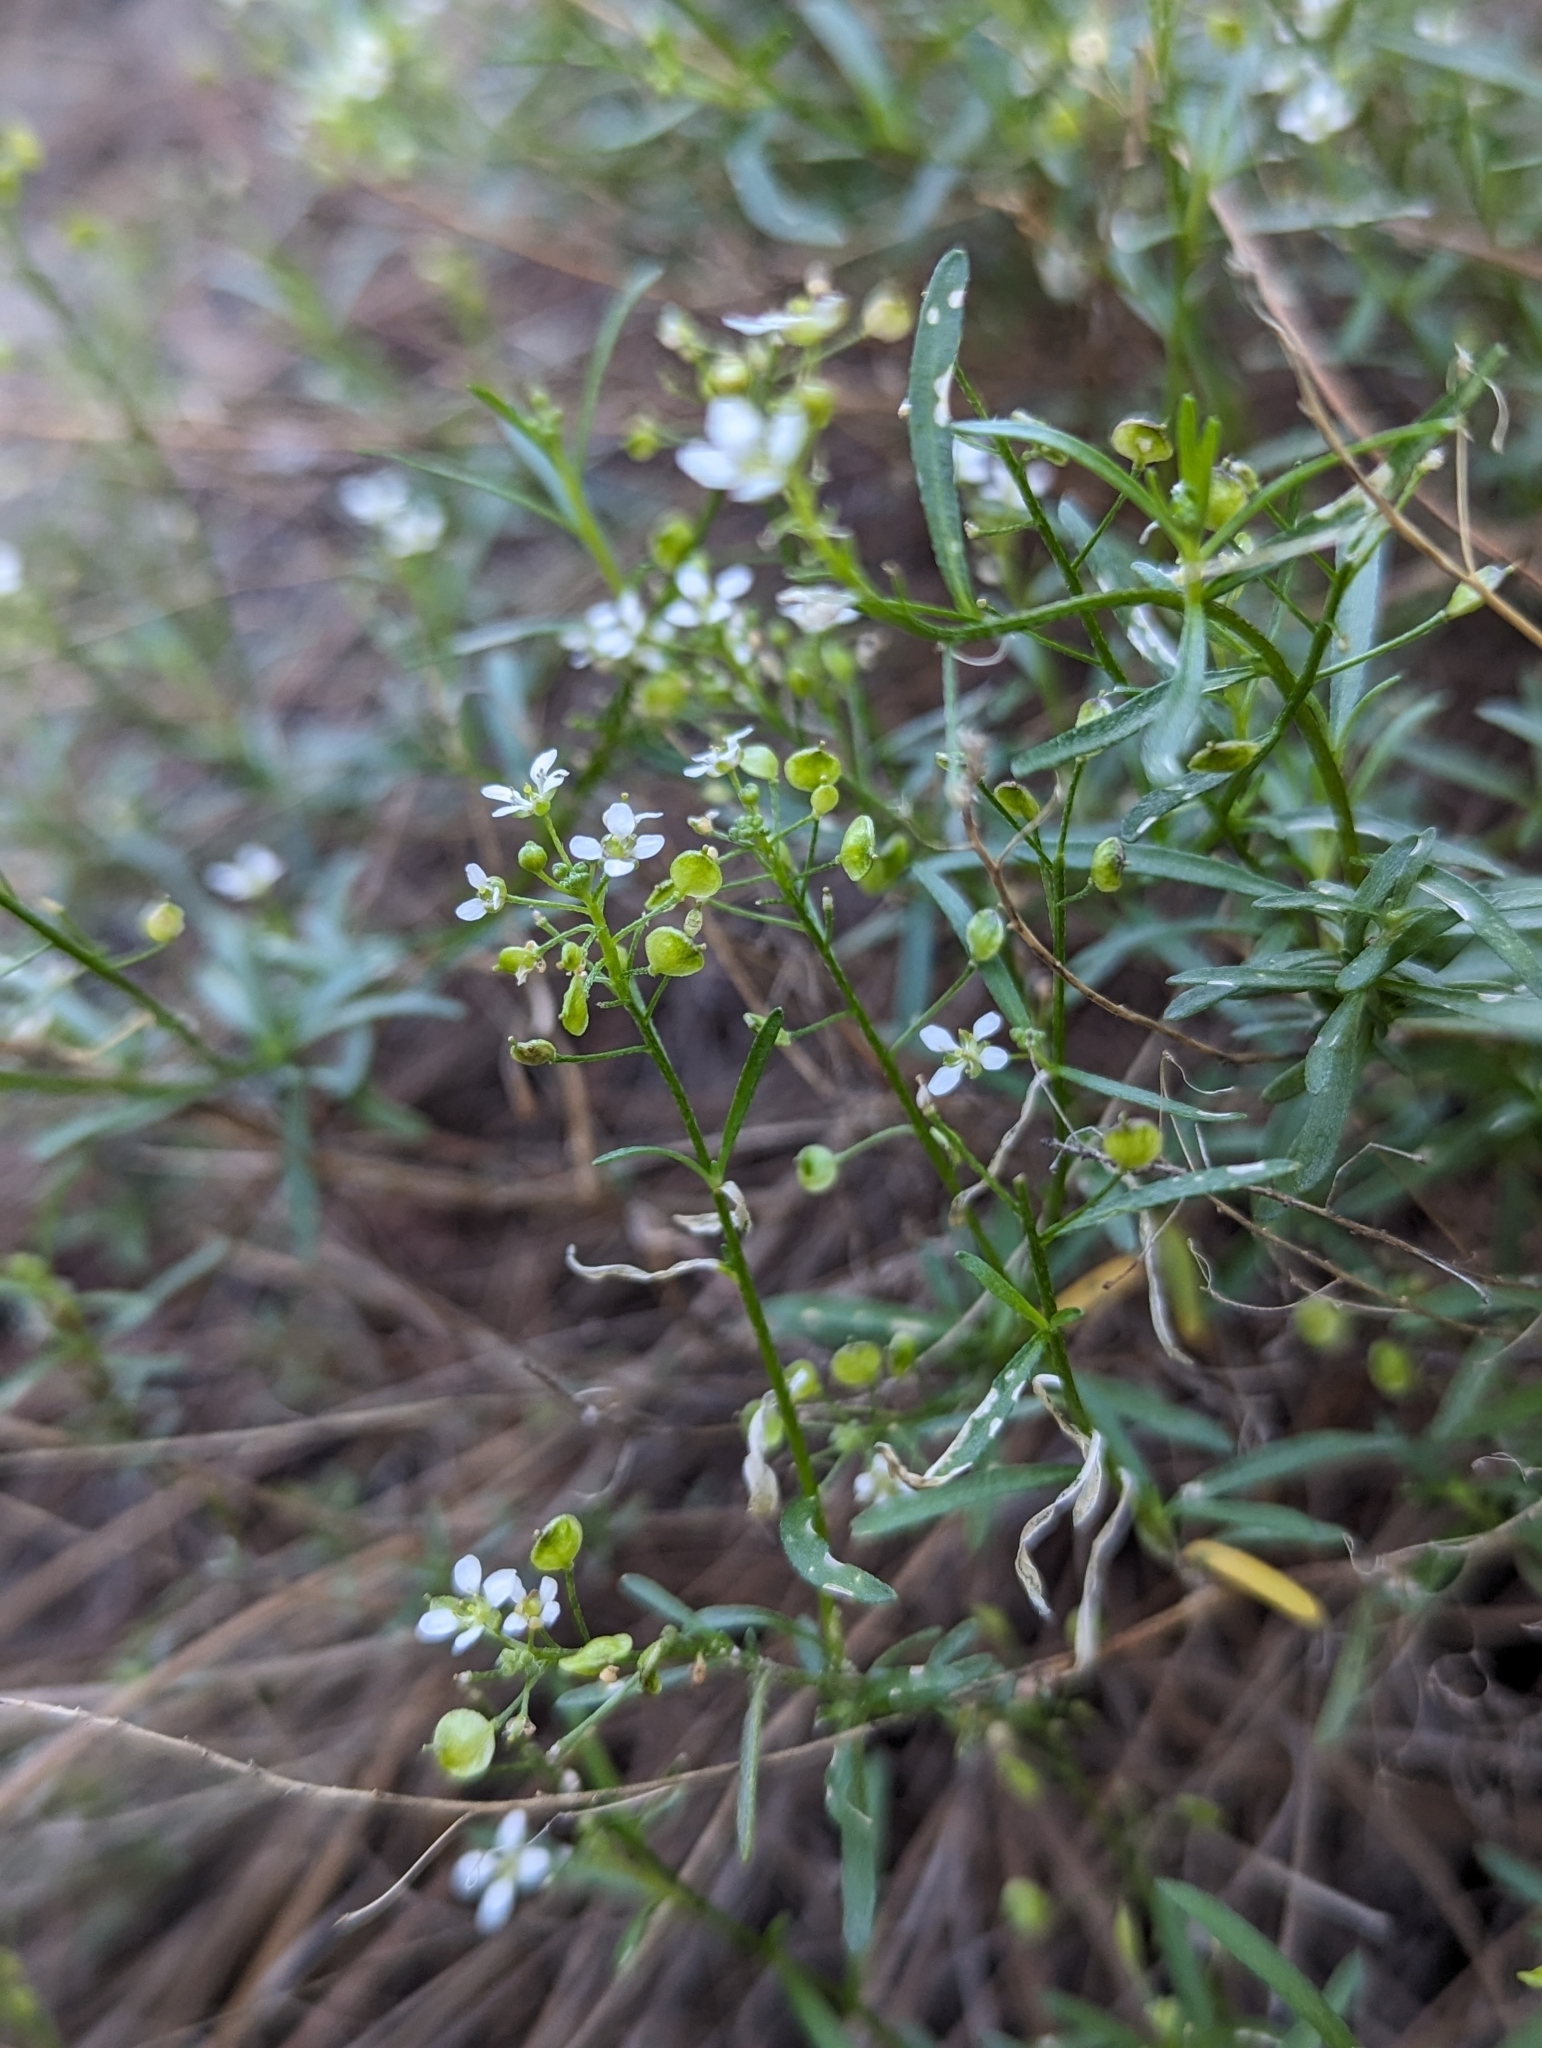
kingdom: Plantae
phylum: Tracheophyta
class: Magnoliopsida
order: Brassicales
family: Brassicaceae
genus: Lobularia
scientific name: Lobularia canariensis
